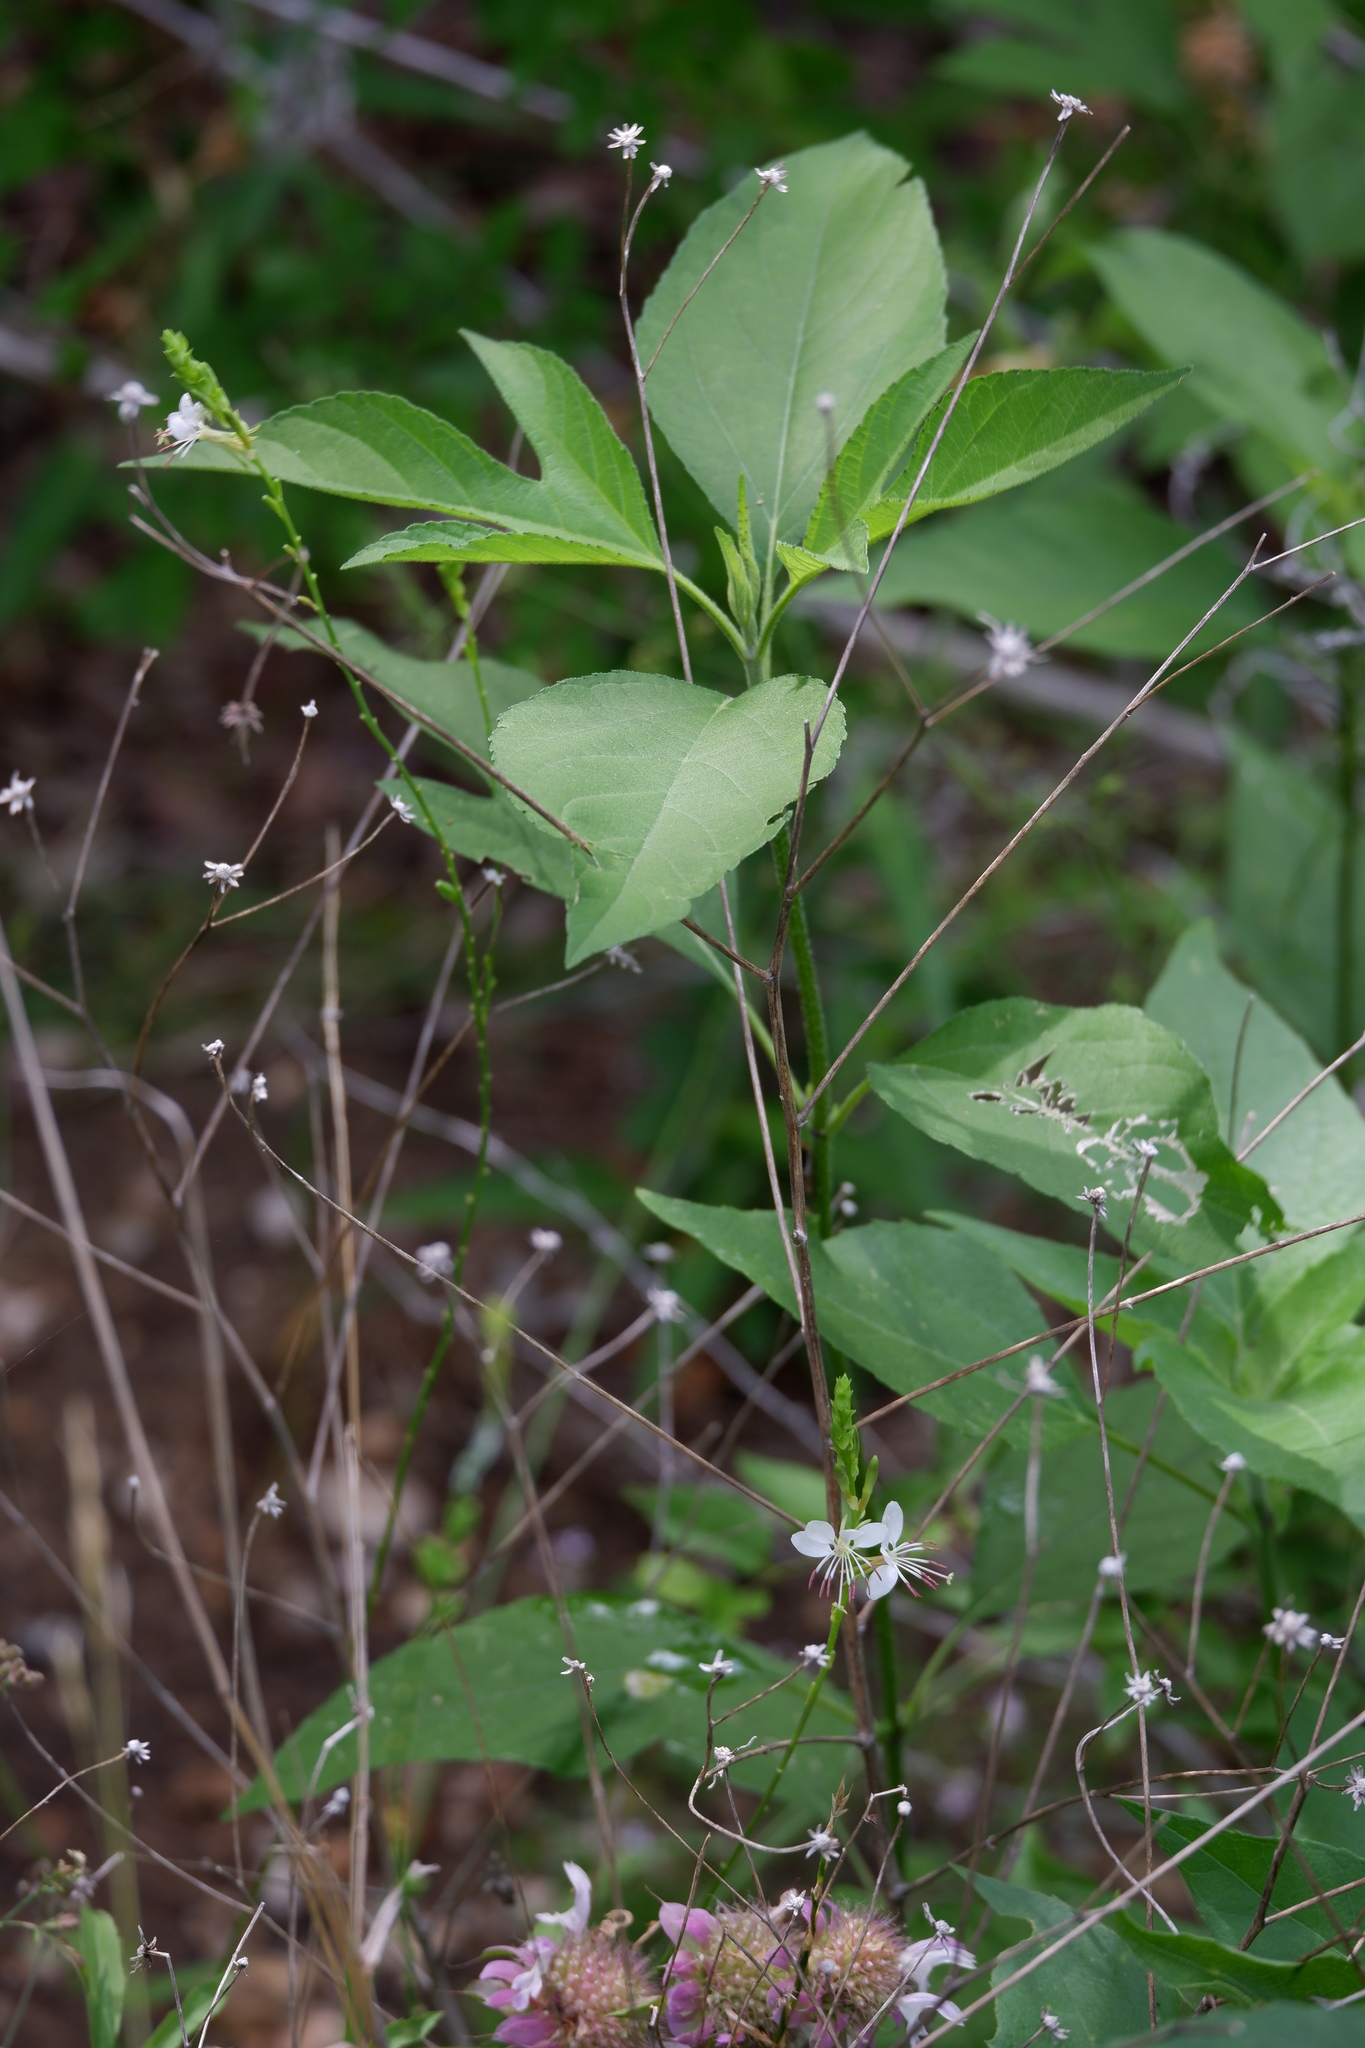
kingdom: Plantae
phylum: Tracheophyta
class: Magnoliopsida
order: Asterales
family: Asteraceae
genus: Ambrosia
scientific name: Ambrosia trifida
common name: Giant ragweed
